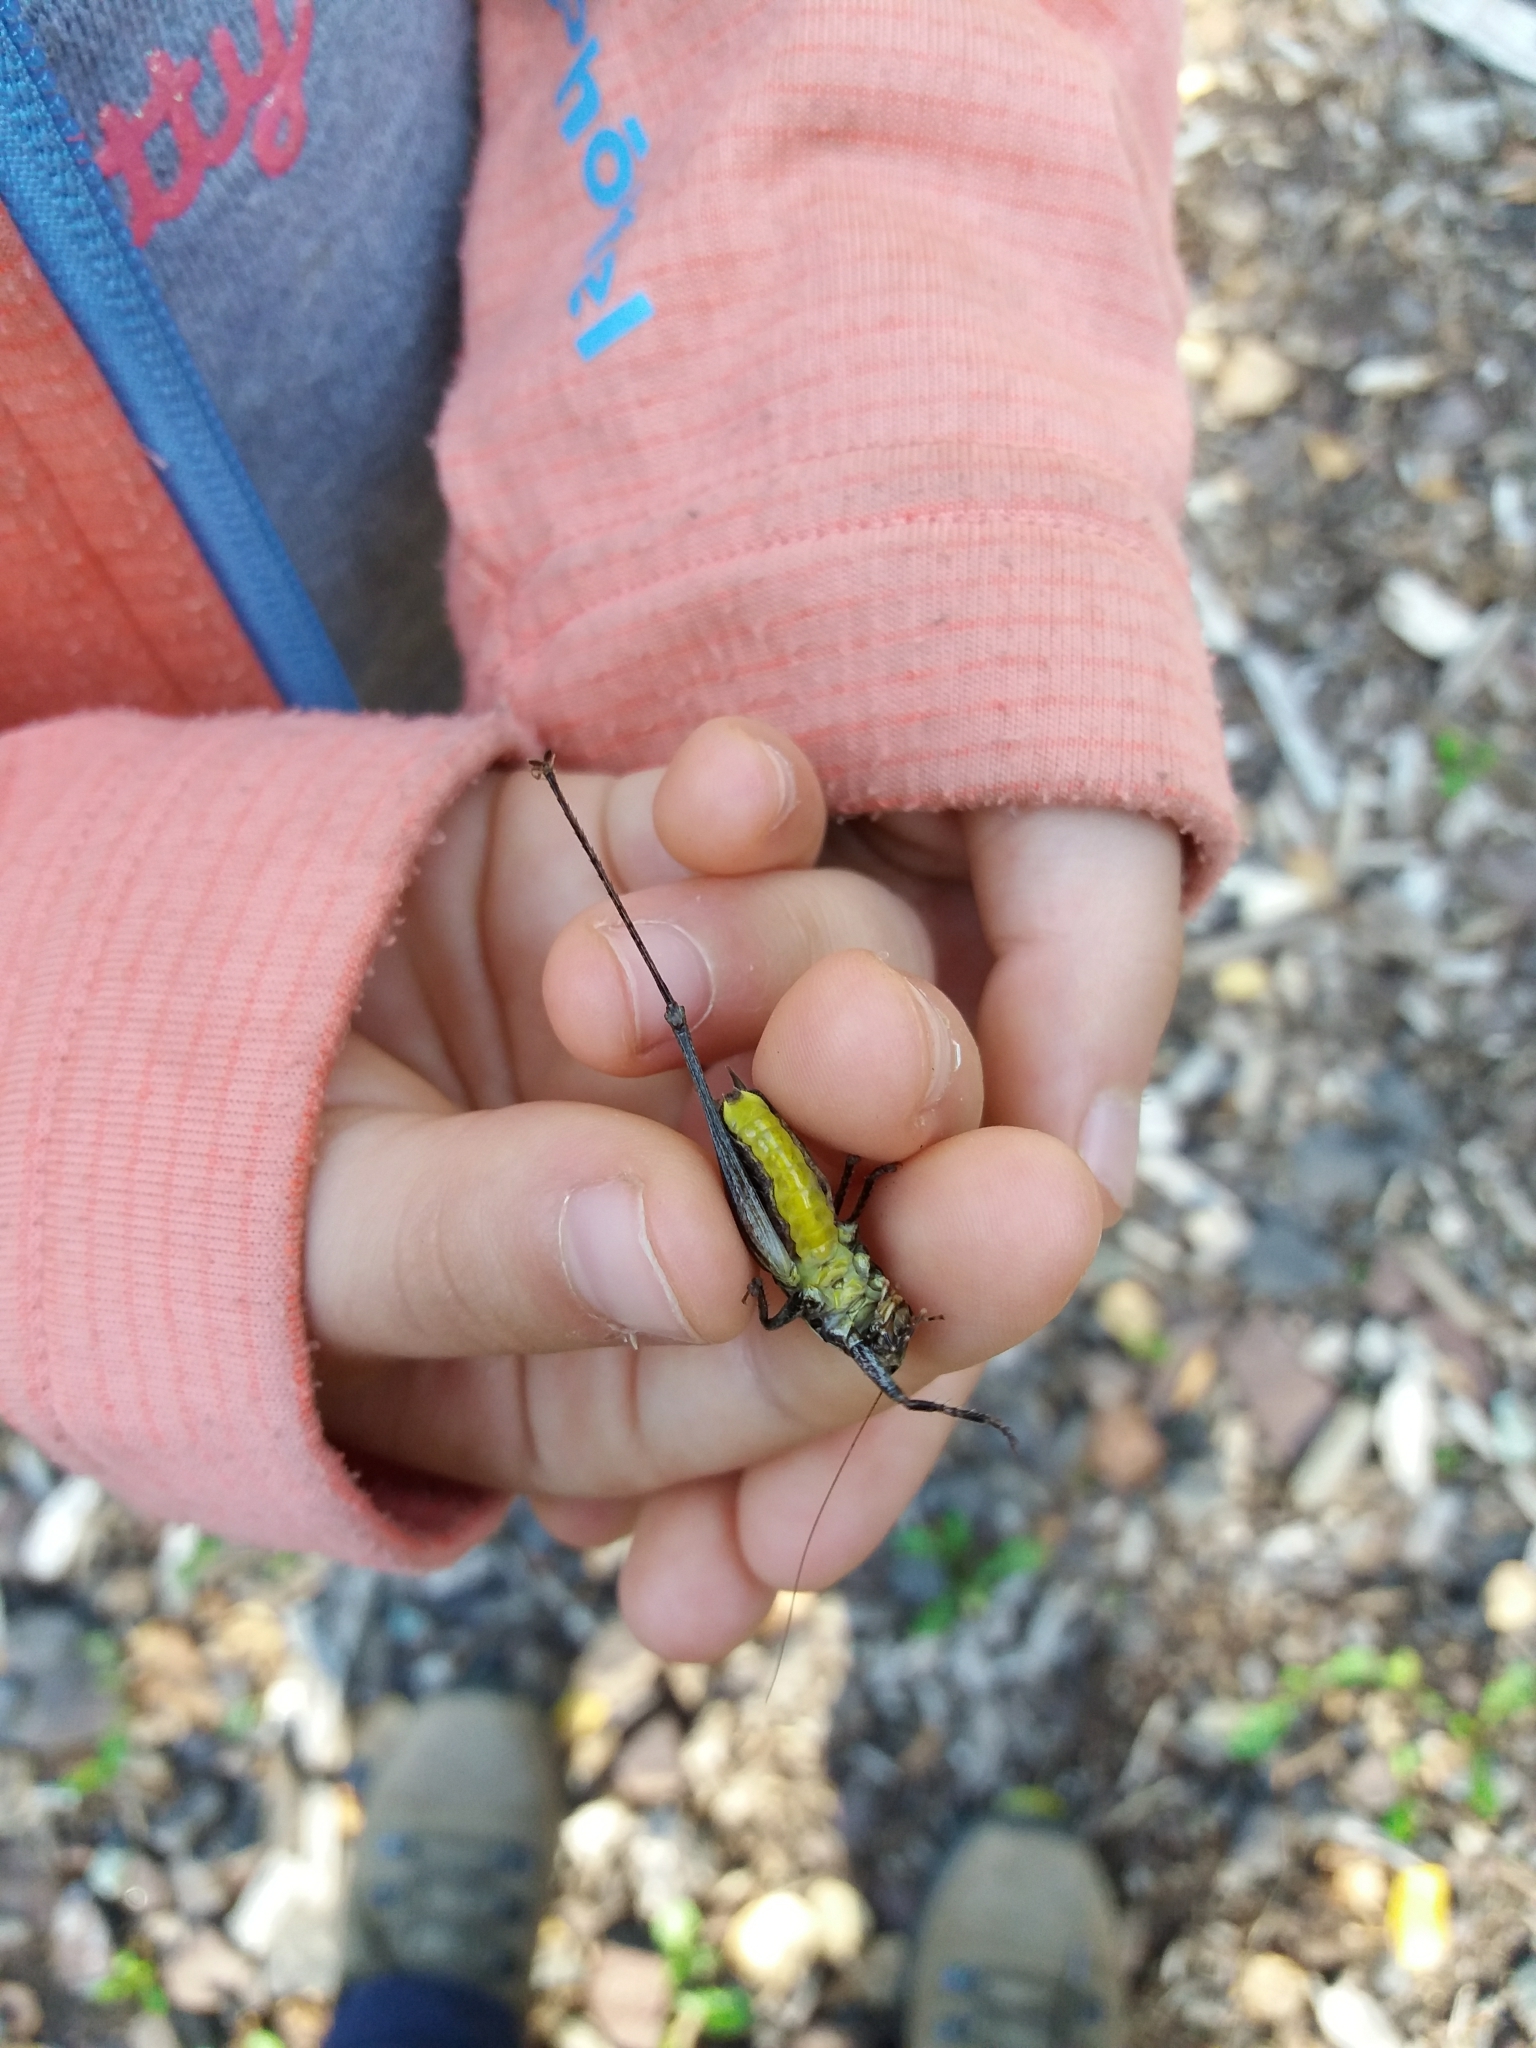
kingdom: Animalia
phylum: Arthropoda
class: Insecta
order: Orthoptera
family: Tettigoniidae
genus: Pholidoptera
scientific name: Pholidoptera griseoaptera
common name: Dark bush-cricket
